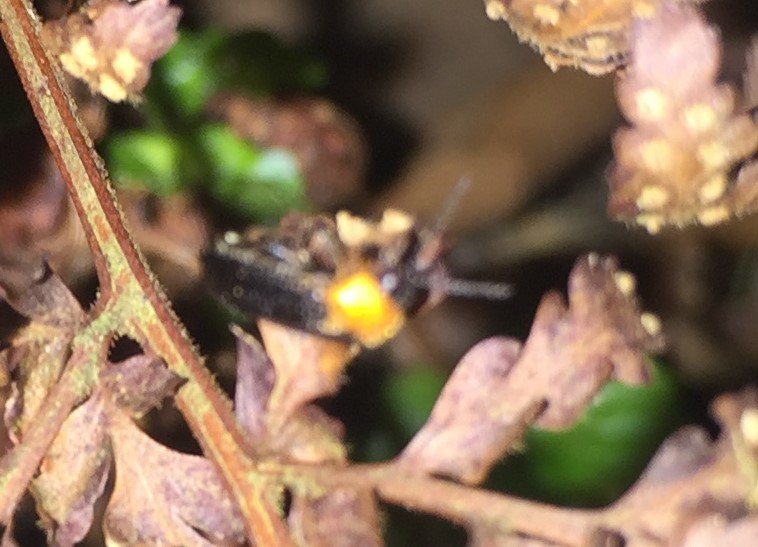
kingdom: Animalia
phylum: Arthropoda
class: Insecta
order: Coleoptera
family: Lampyridae
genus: Australoluciola
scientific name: Australoluciola nigra
